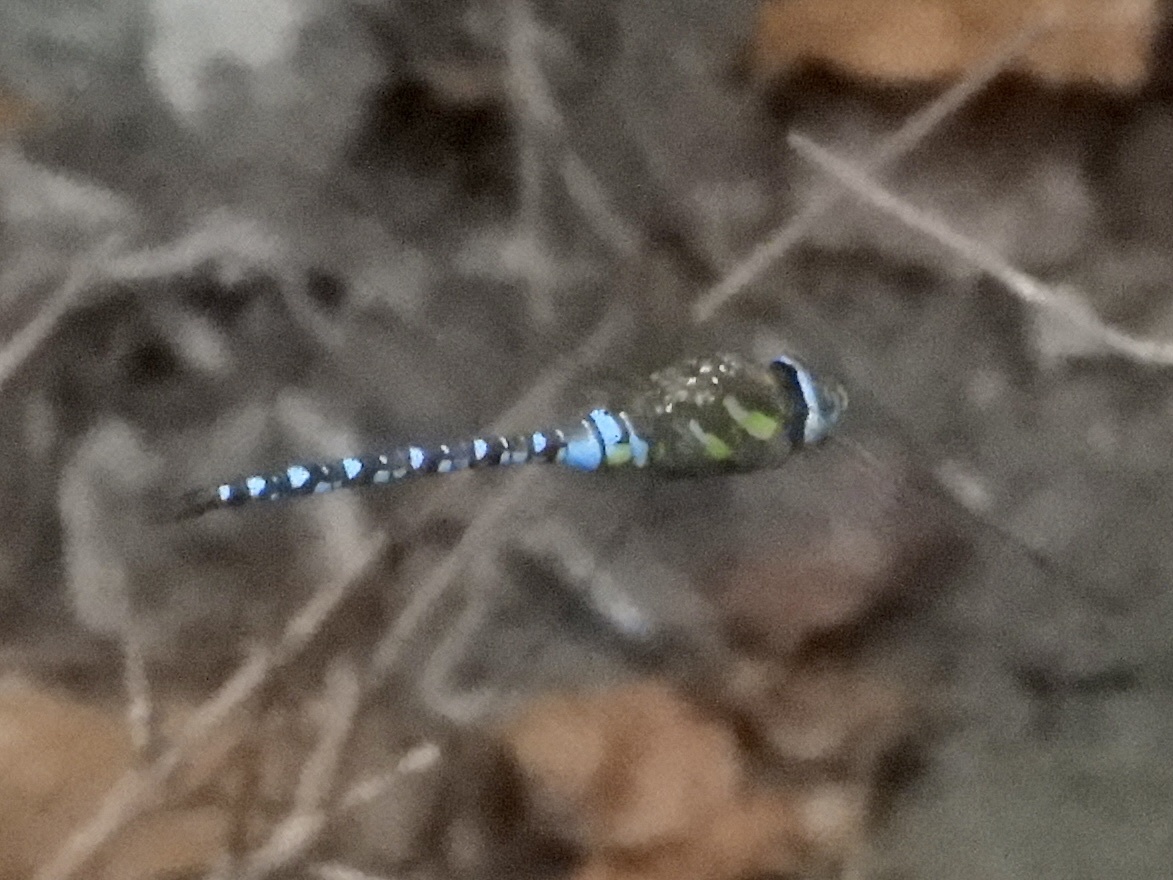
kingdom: Animalia
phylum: Arthropoda
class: Insecta
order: Odonata
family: Aeshnidae
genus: Aeshna
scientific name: Aeshna mixta
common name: Migrant hawker
